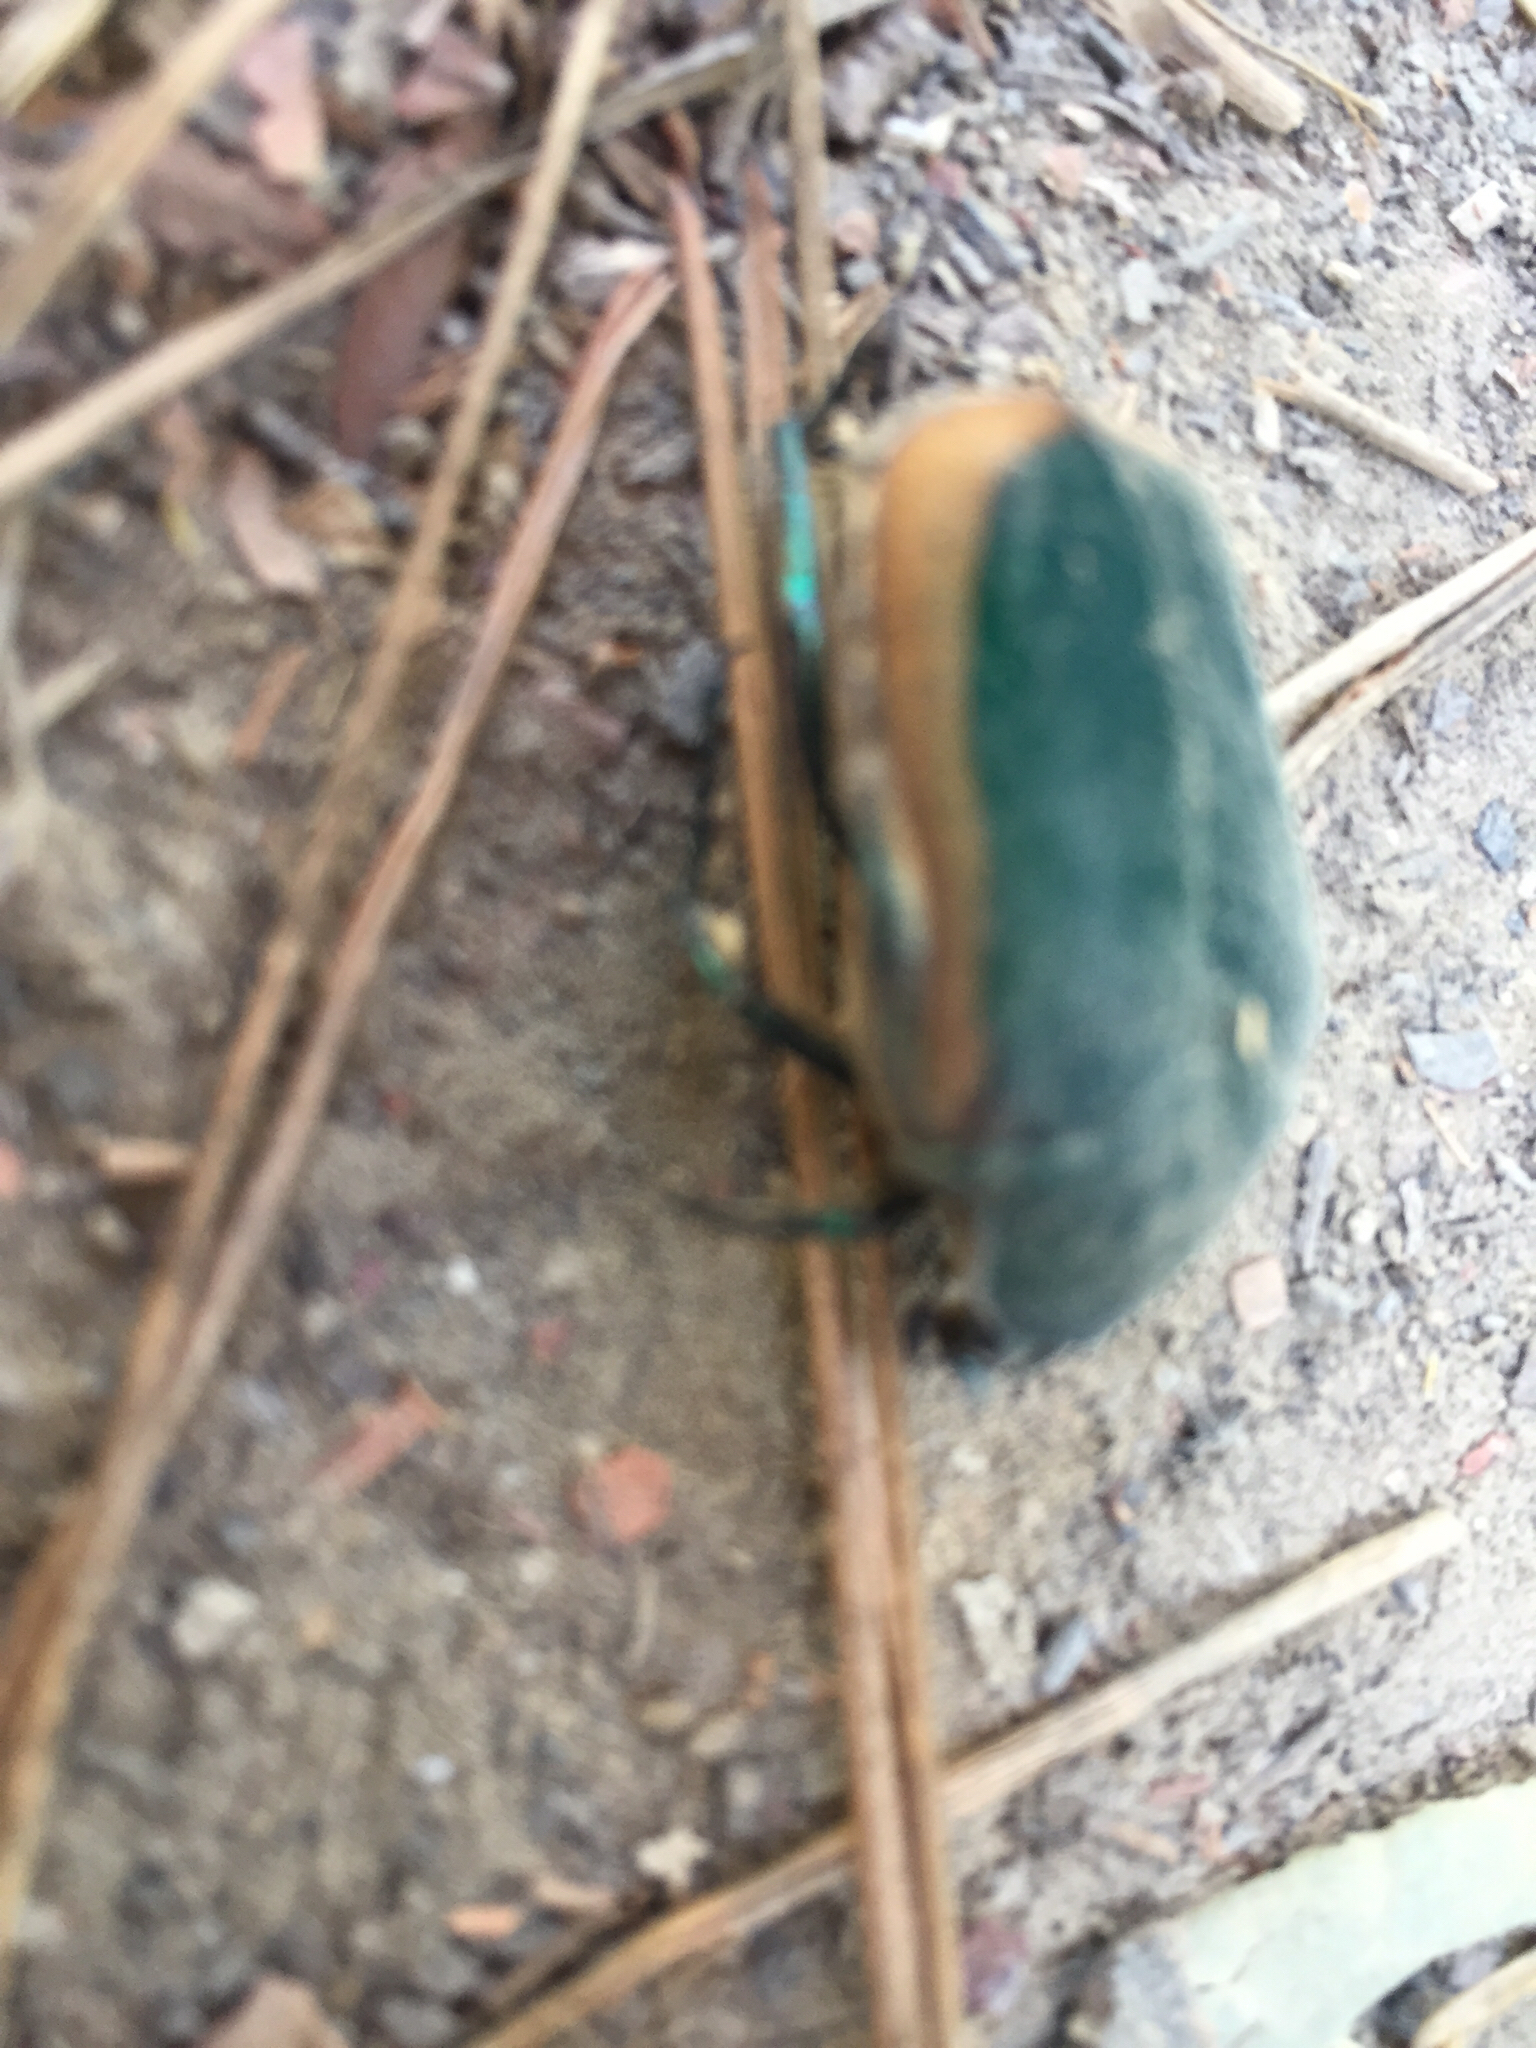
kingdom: Animalia
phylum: Arthropoda
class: Insecta
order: Coleoptera
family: Scarabaeidae
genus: Cotinis
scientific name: Cotinis mutabilis
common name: Figeater beetle
